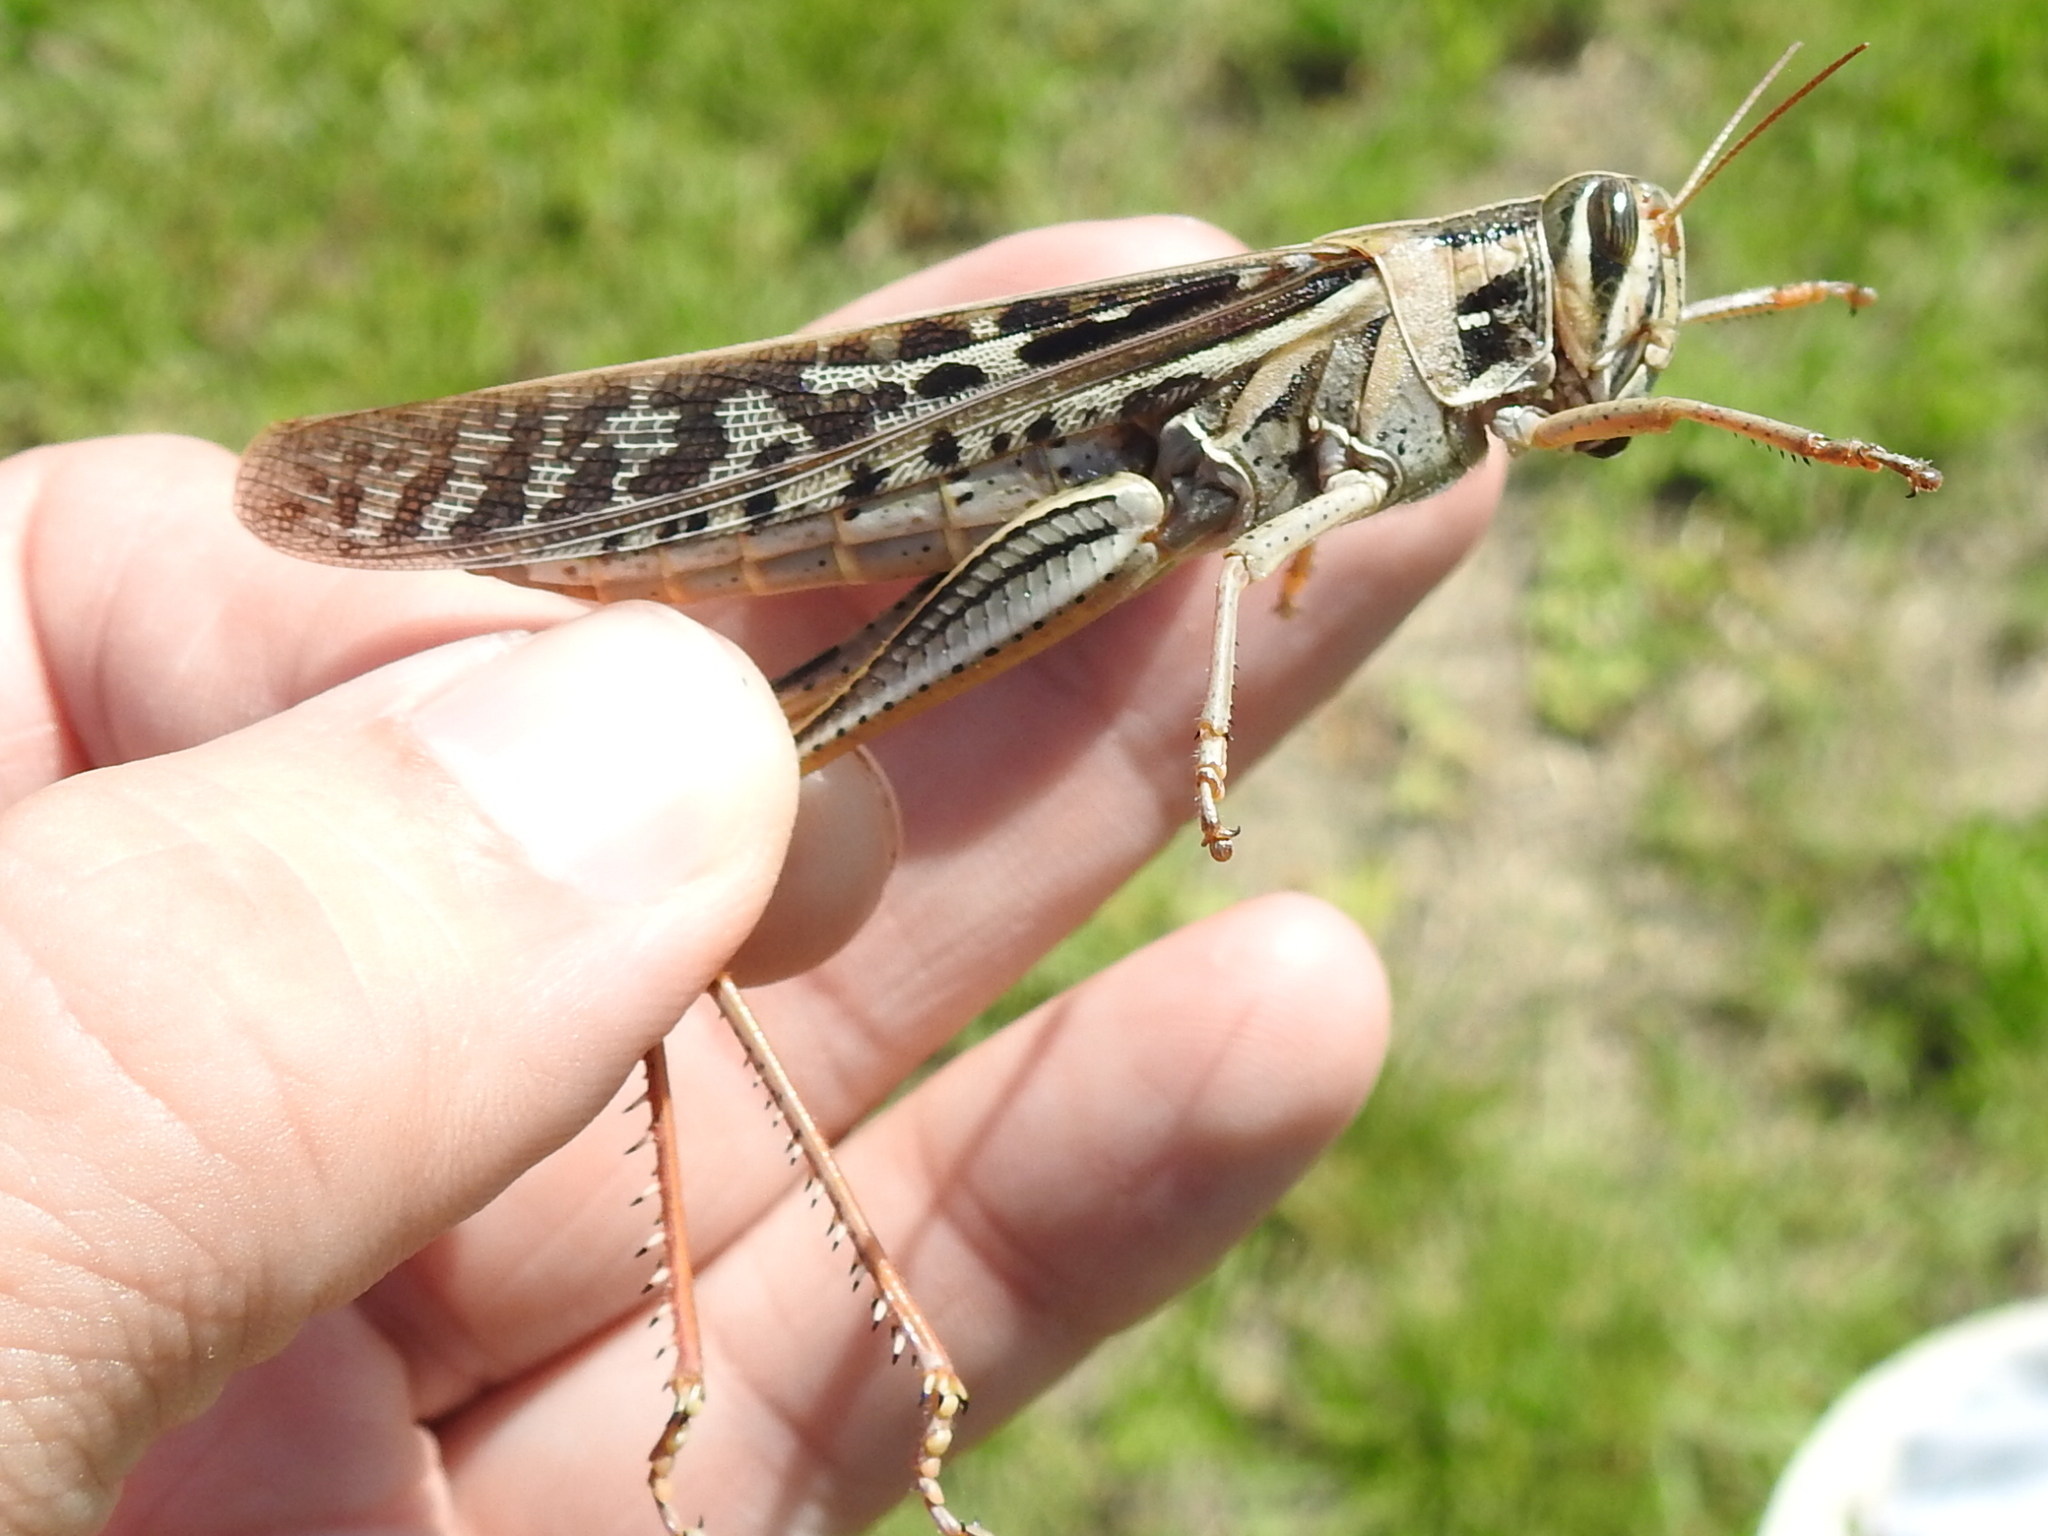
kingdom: Animalia
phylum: Arthropoda
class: Insecta
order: Orthoptera
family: Acrididae
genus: Schistocerca
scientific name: Schistocerca americana
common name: American bird locust
